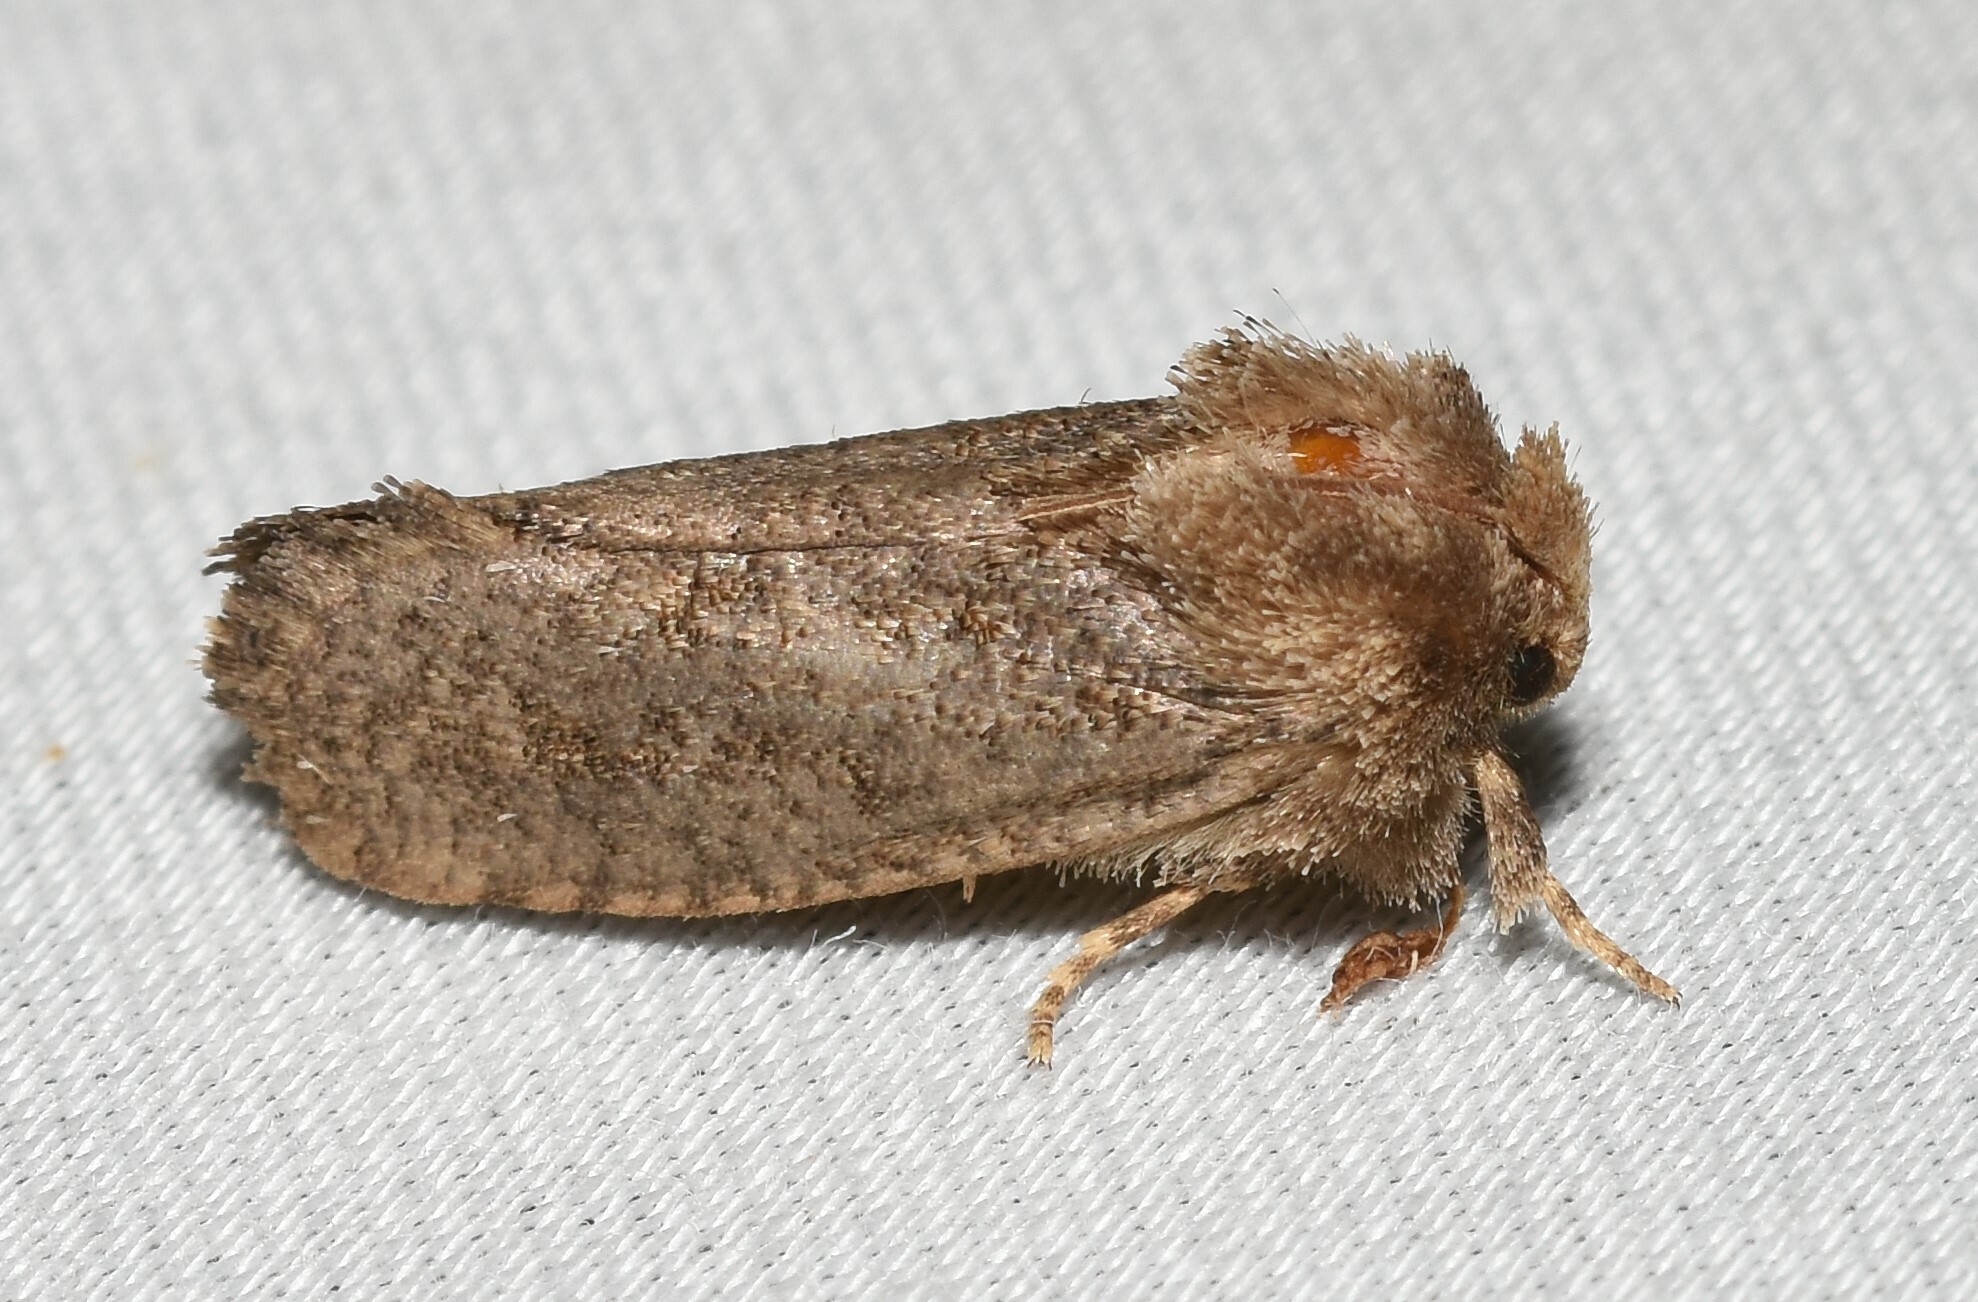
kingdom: Animalia
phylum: Arthropoda
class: Insecta
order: Lepidoptera
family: Tineidae
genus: Acrolophus
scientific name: Acrolophus arcanella
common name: Arcane grass tubeworm moth
